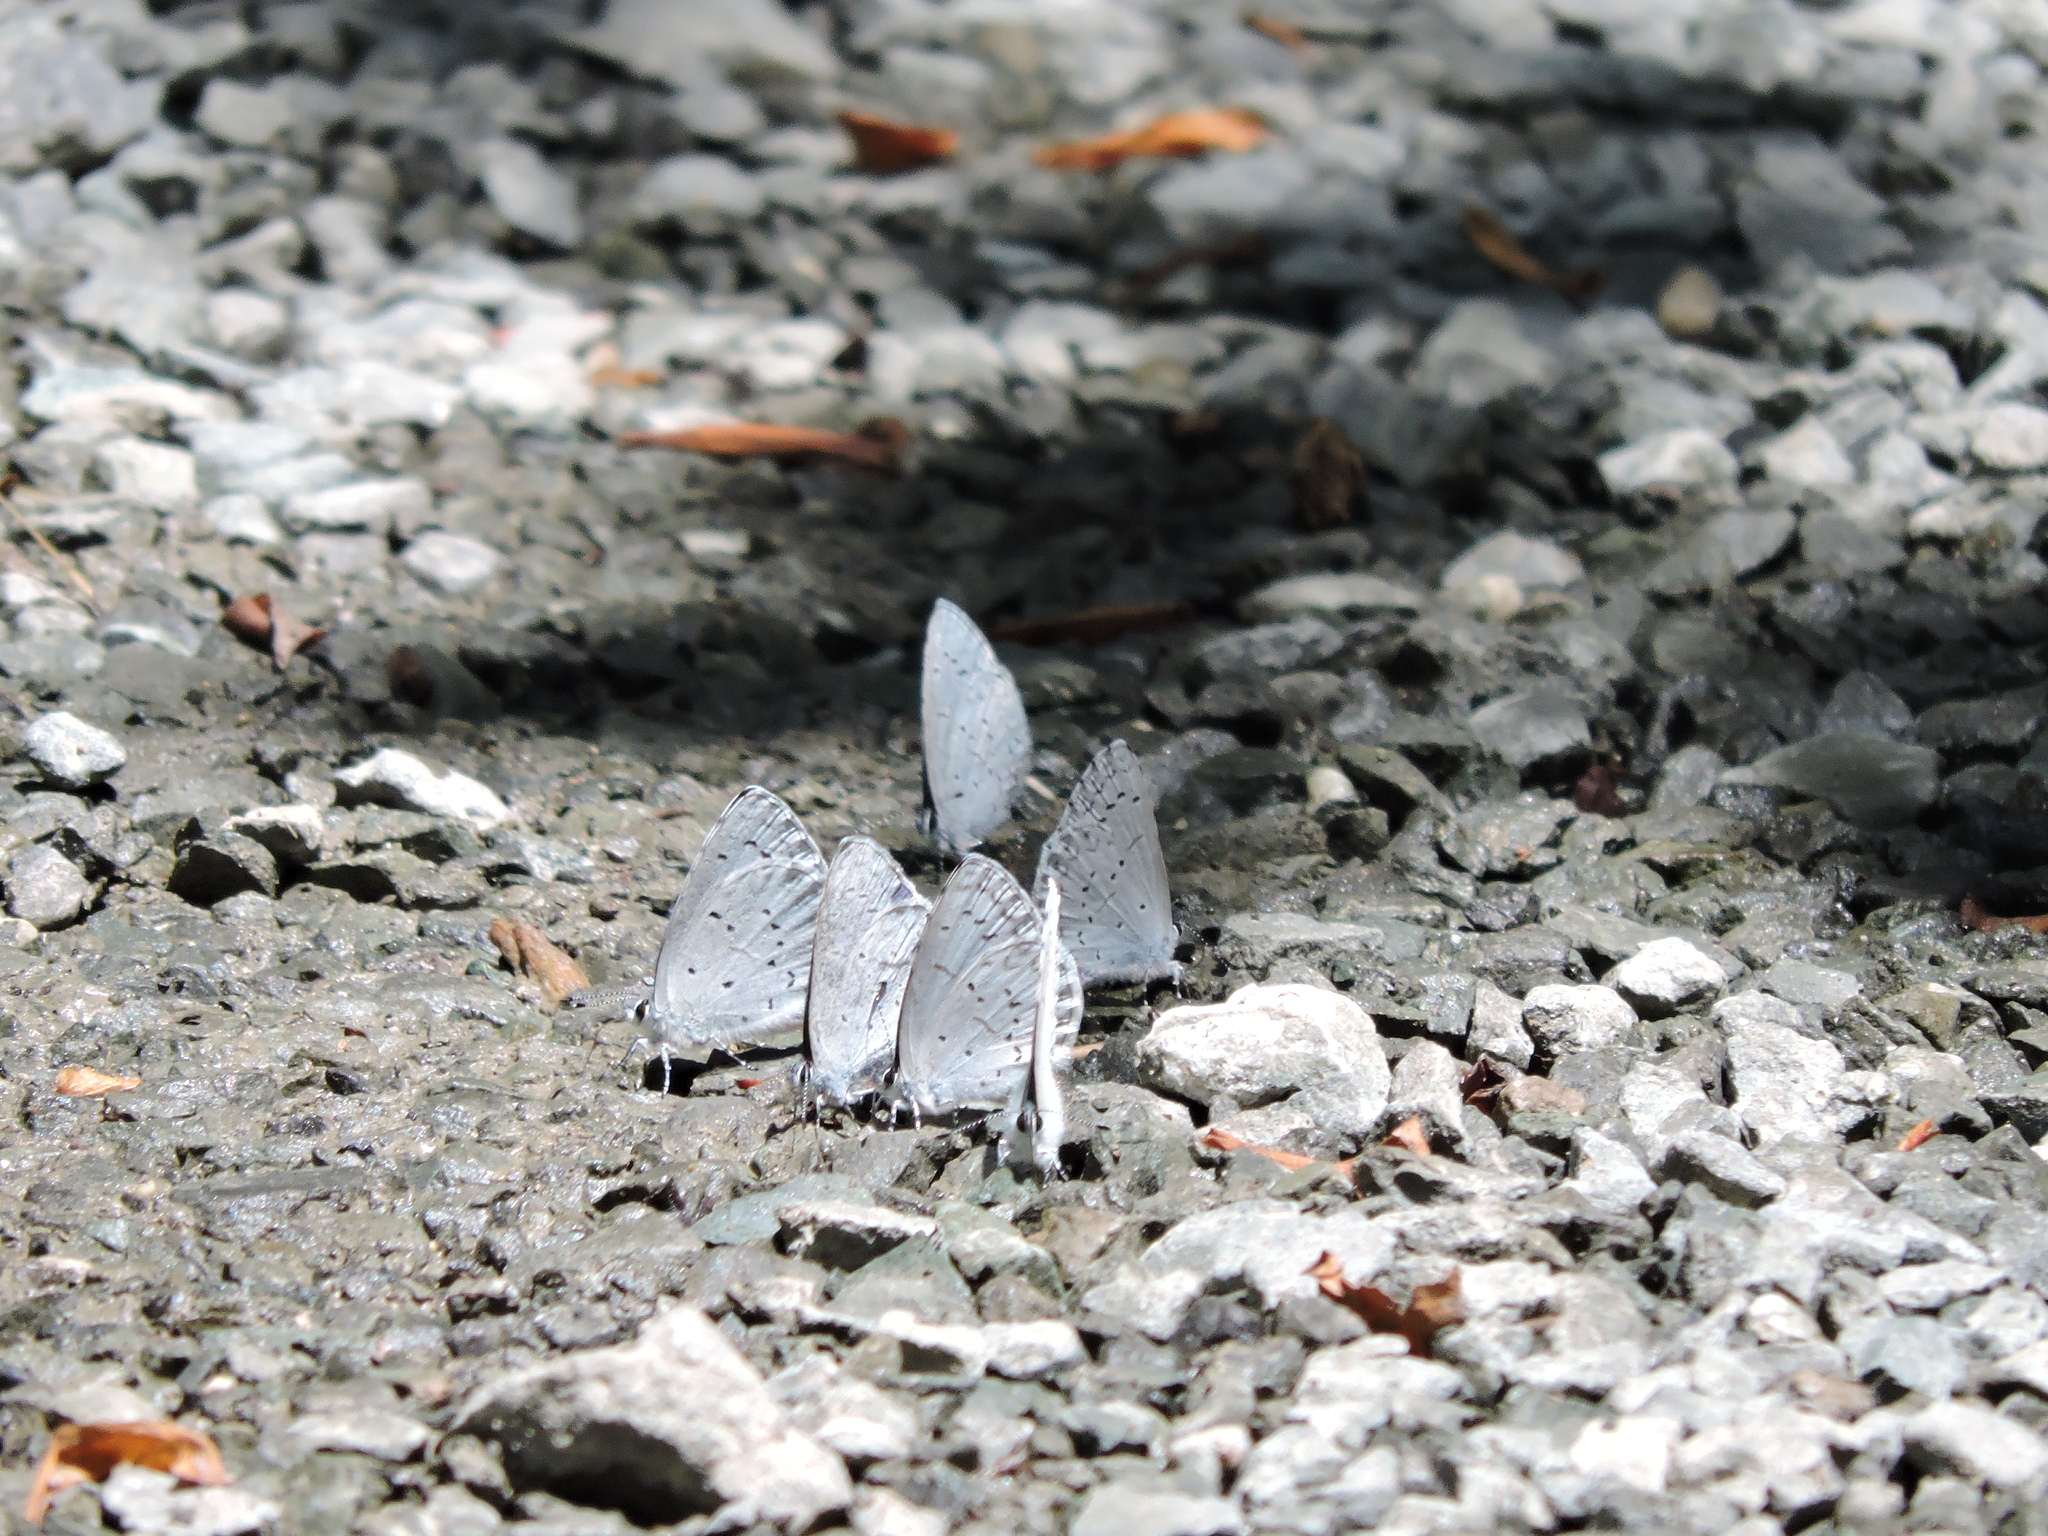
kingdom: Animalia
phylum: Arthropoda
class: Insecta
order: Lepidoptera
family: Lycaenidae
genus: Celastrina
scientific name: Celastrina ladon
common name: Spring azure
